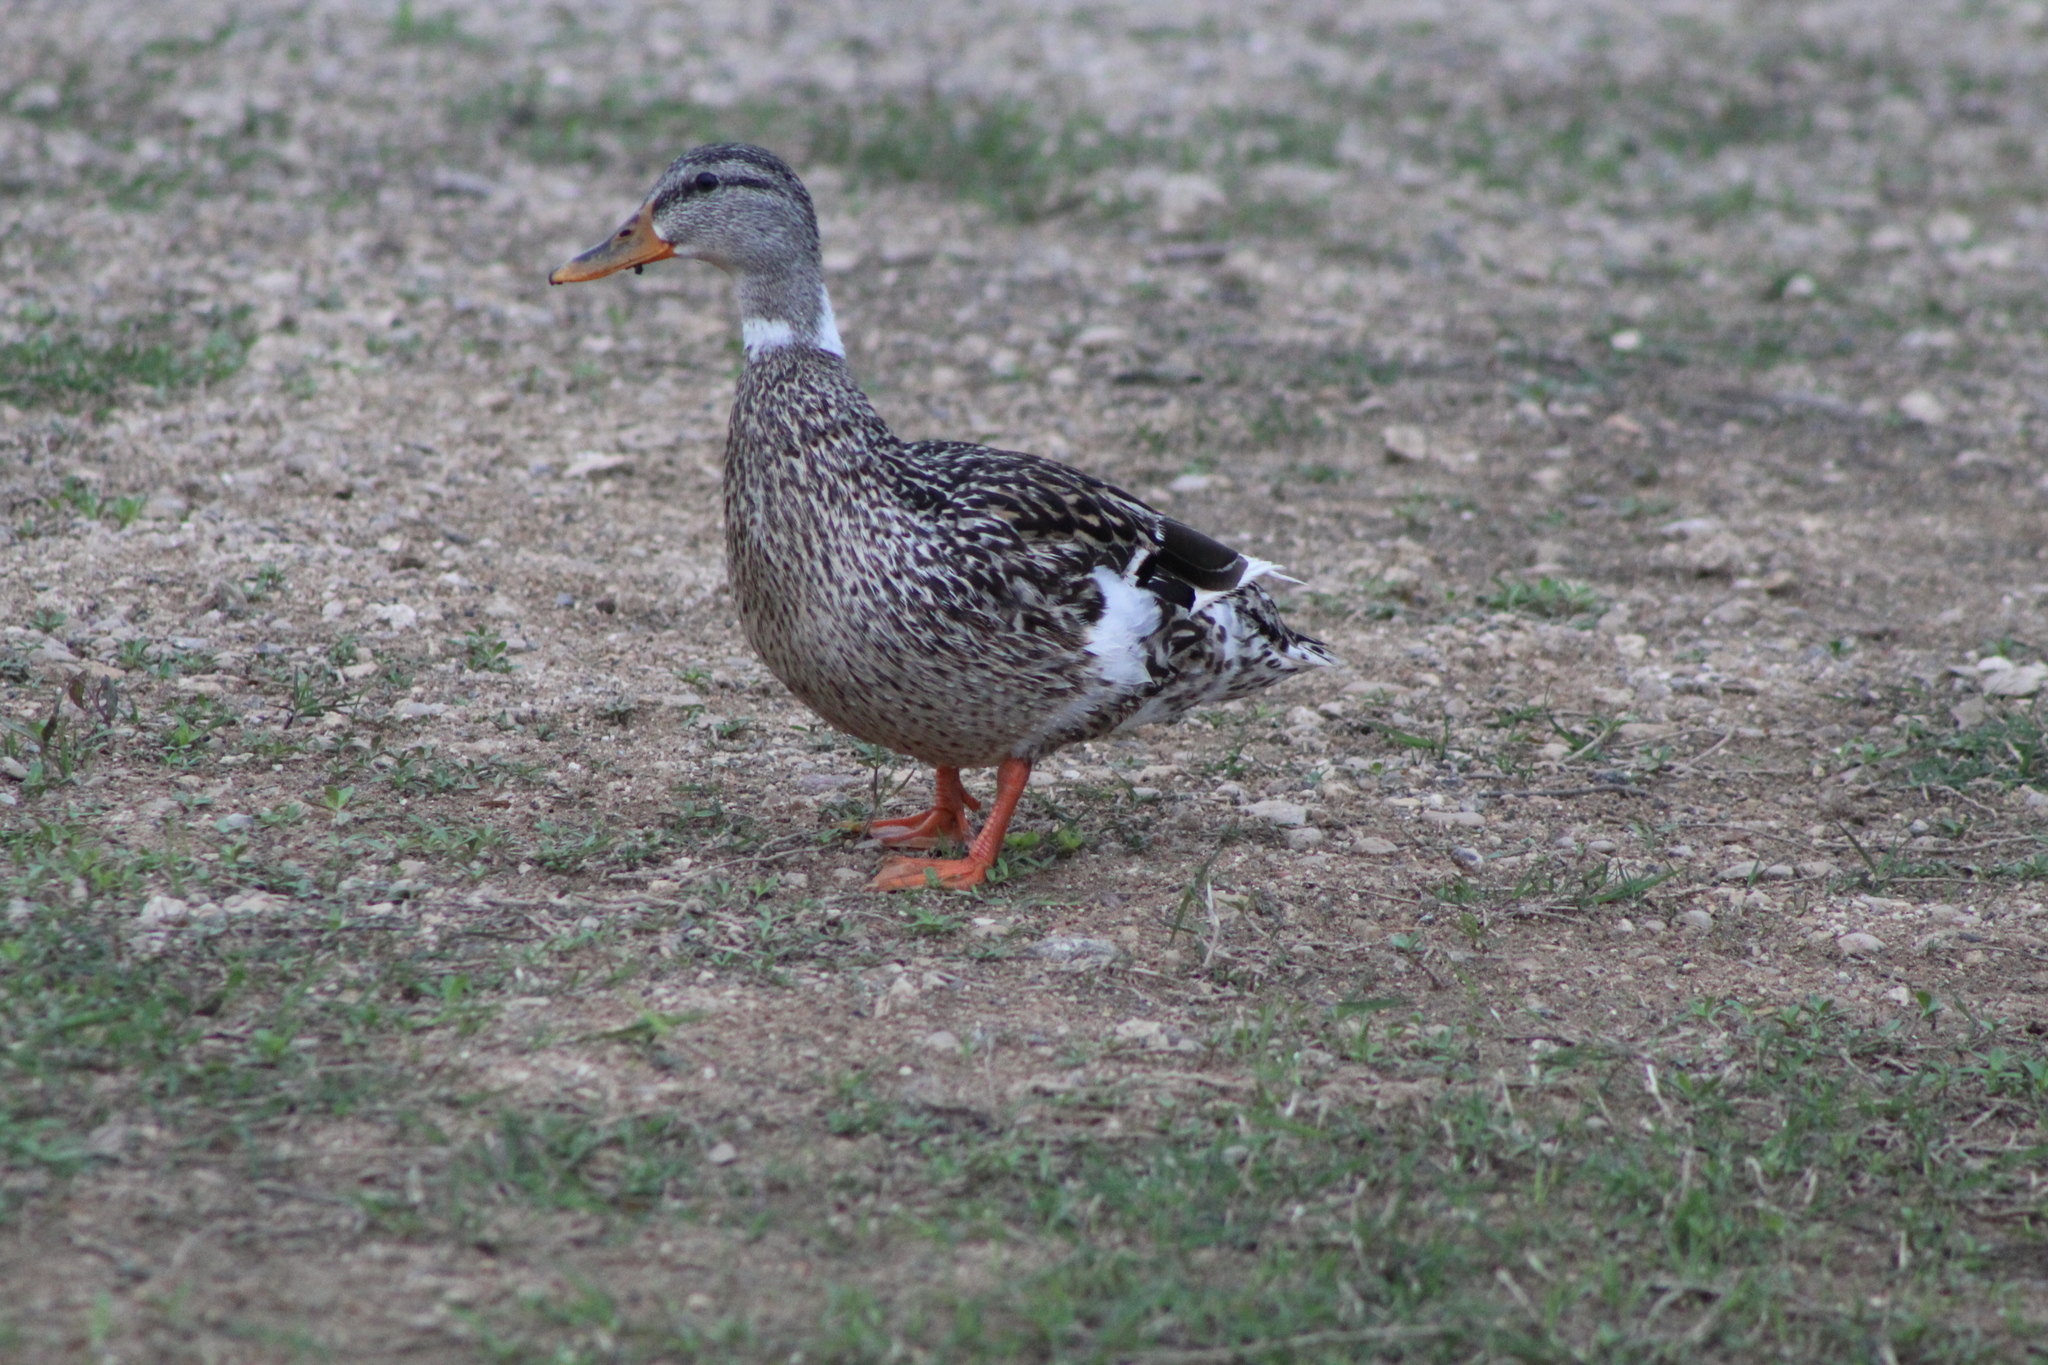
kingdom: Animalia
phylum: Chordata
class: Aves
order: Anseriformes
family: Anatidae
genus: Anas
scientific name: Anas platyrhynchos
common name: Mallard
